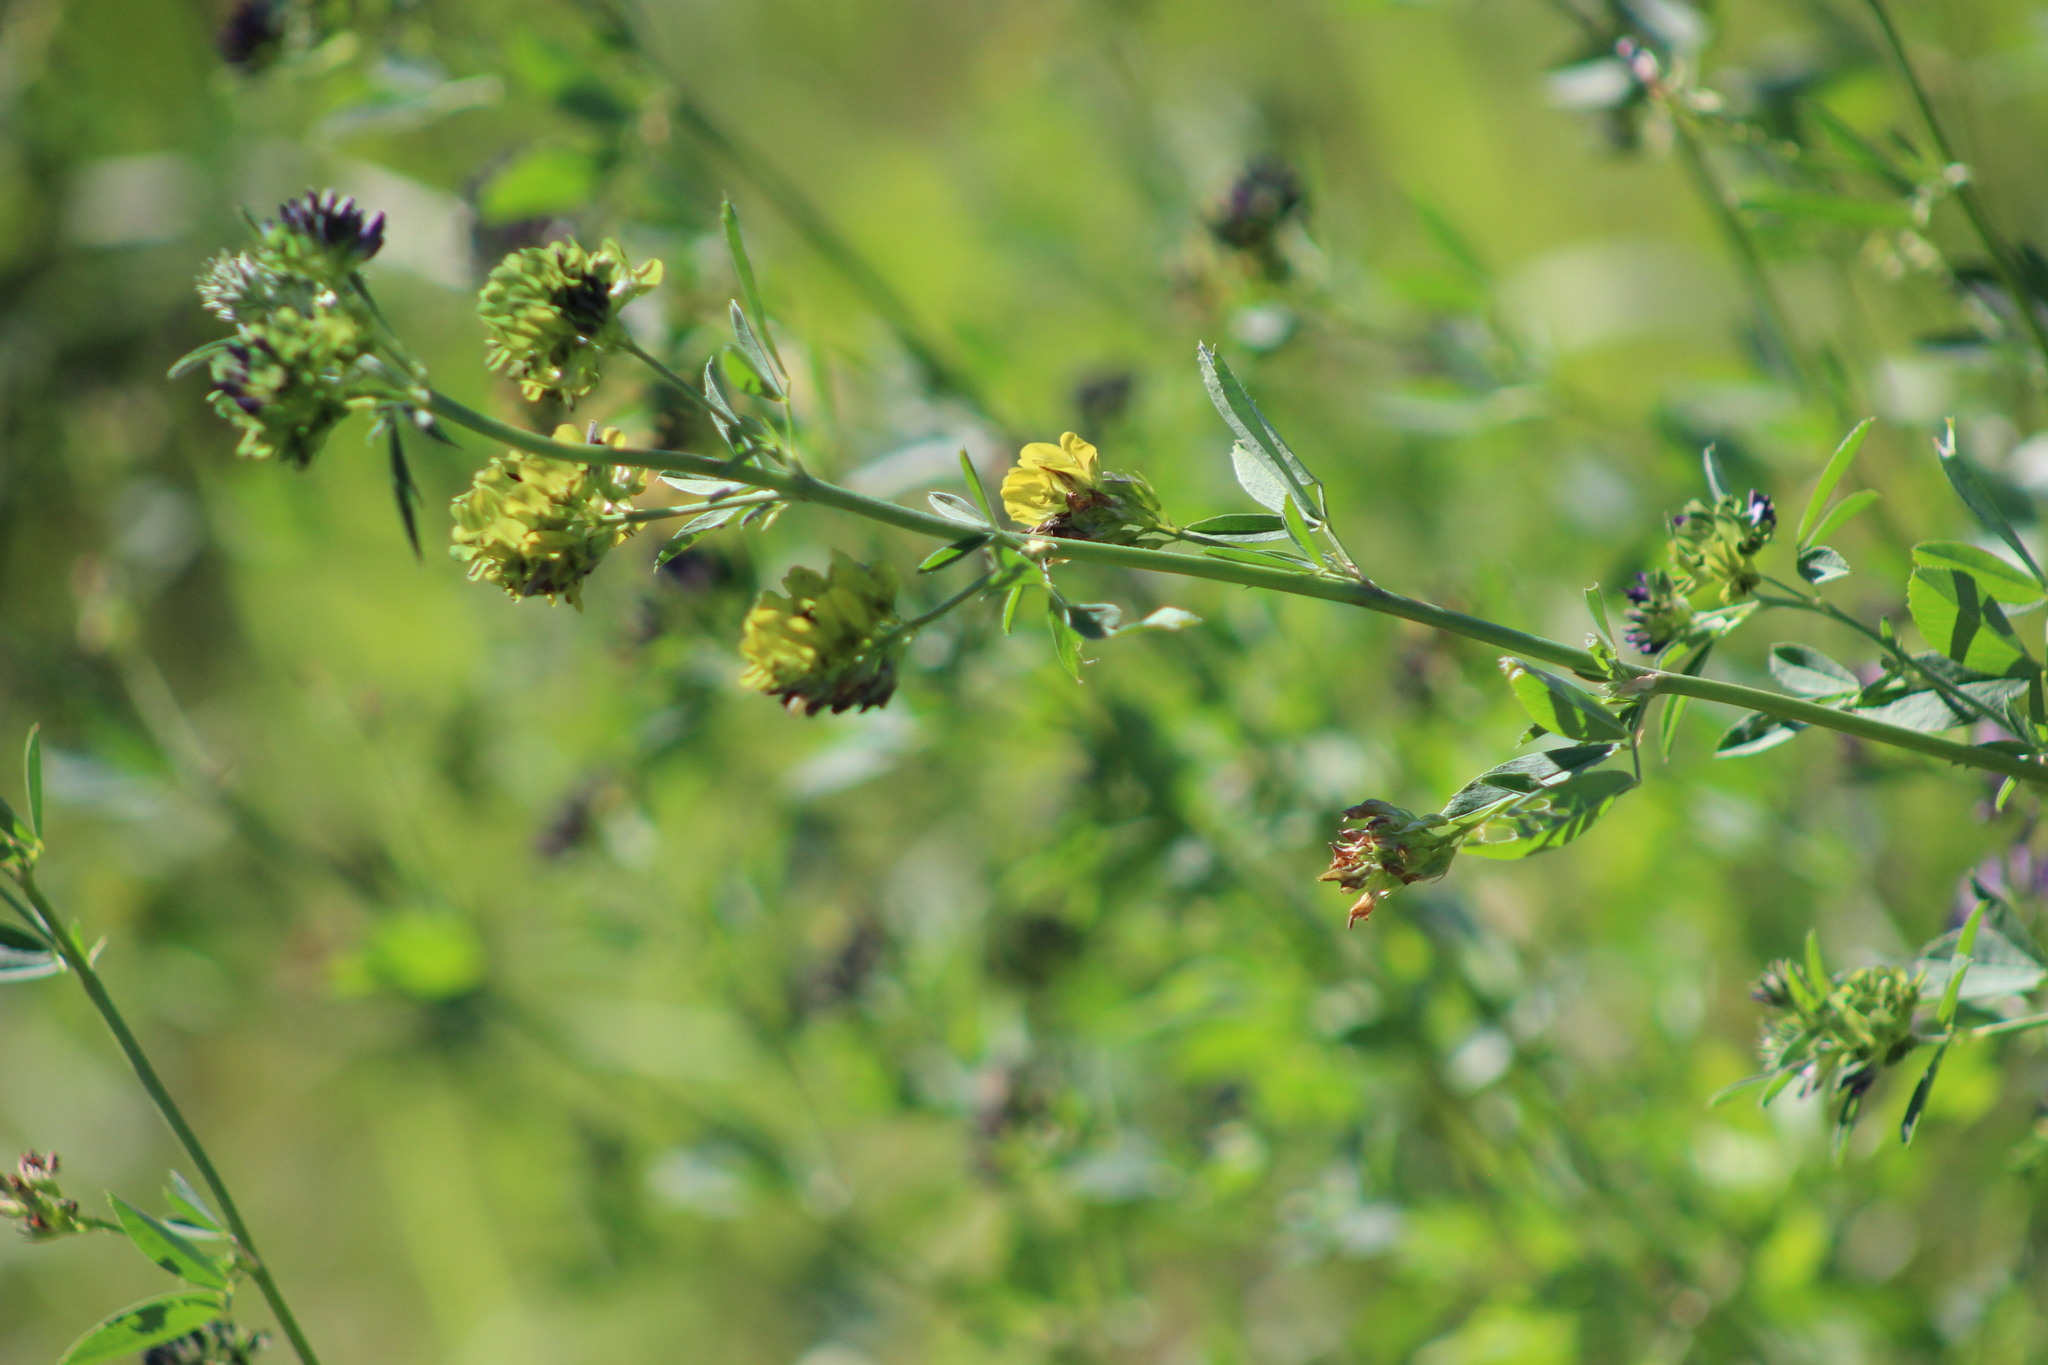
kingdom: Plantae
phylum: Tracheophyta
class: Magnoliopsida
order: Fabales
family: Fabaceae
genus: Medicago
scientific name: Medicago varia
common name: Sand lucerne
